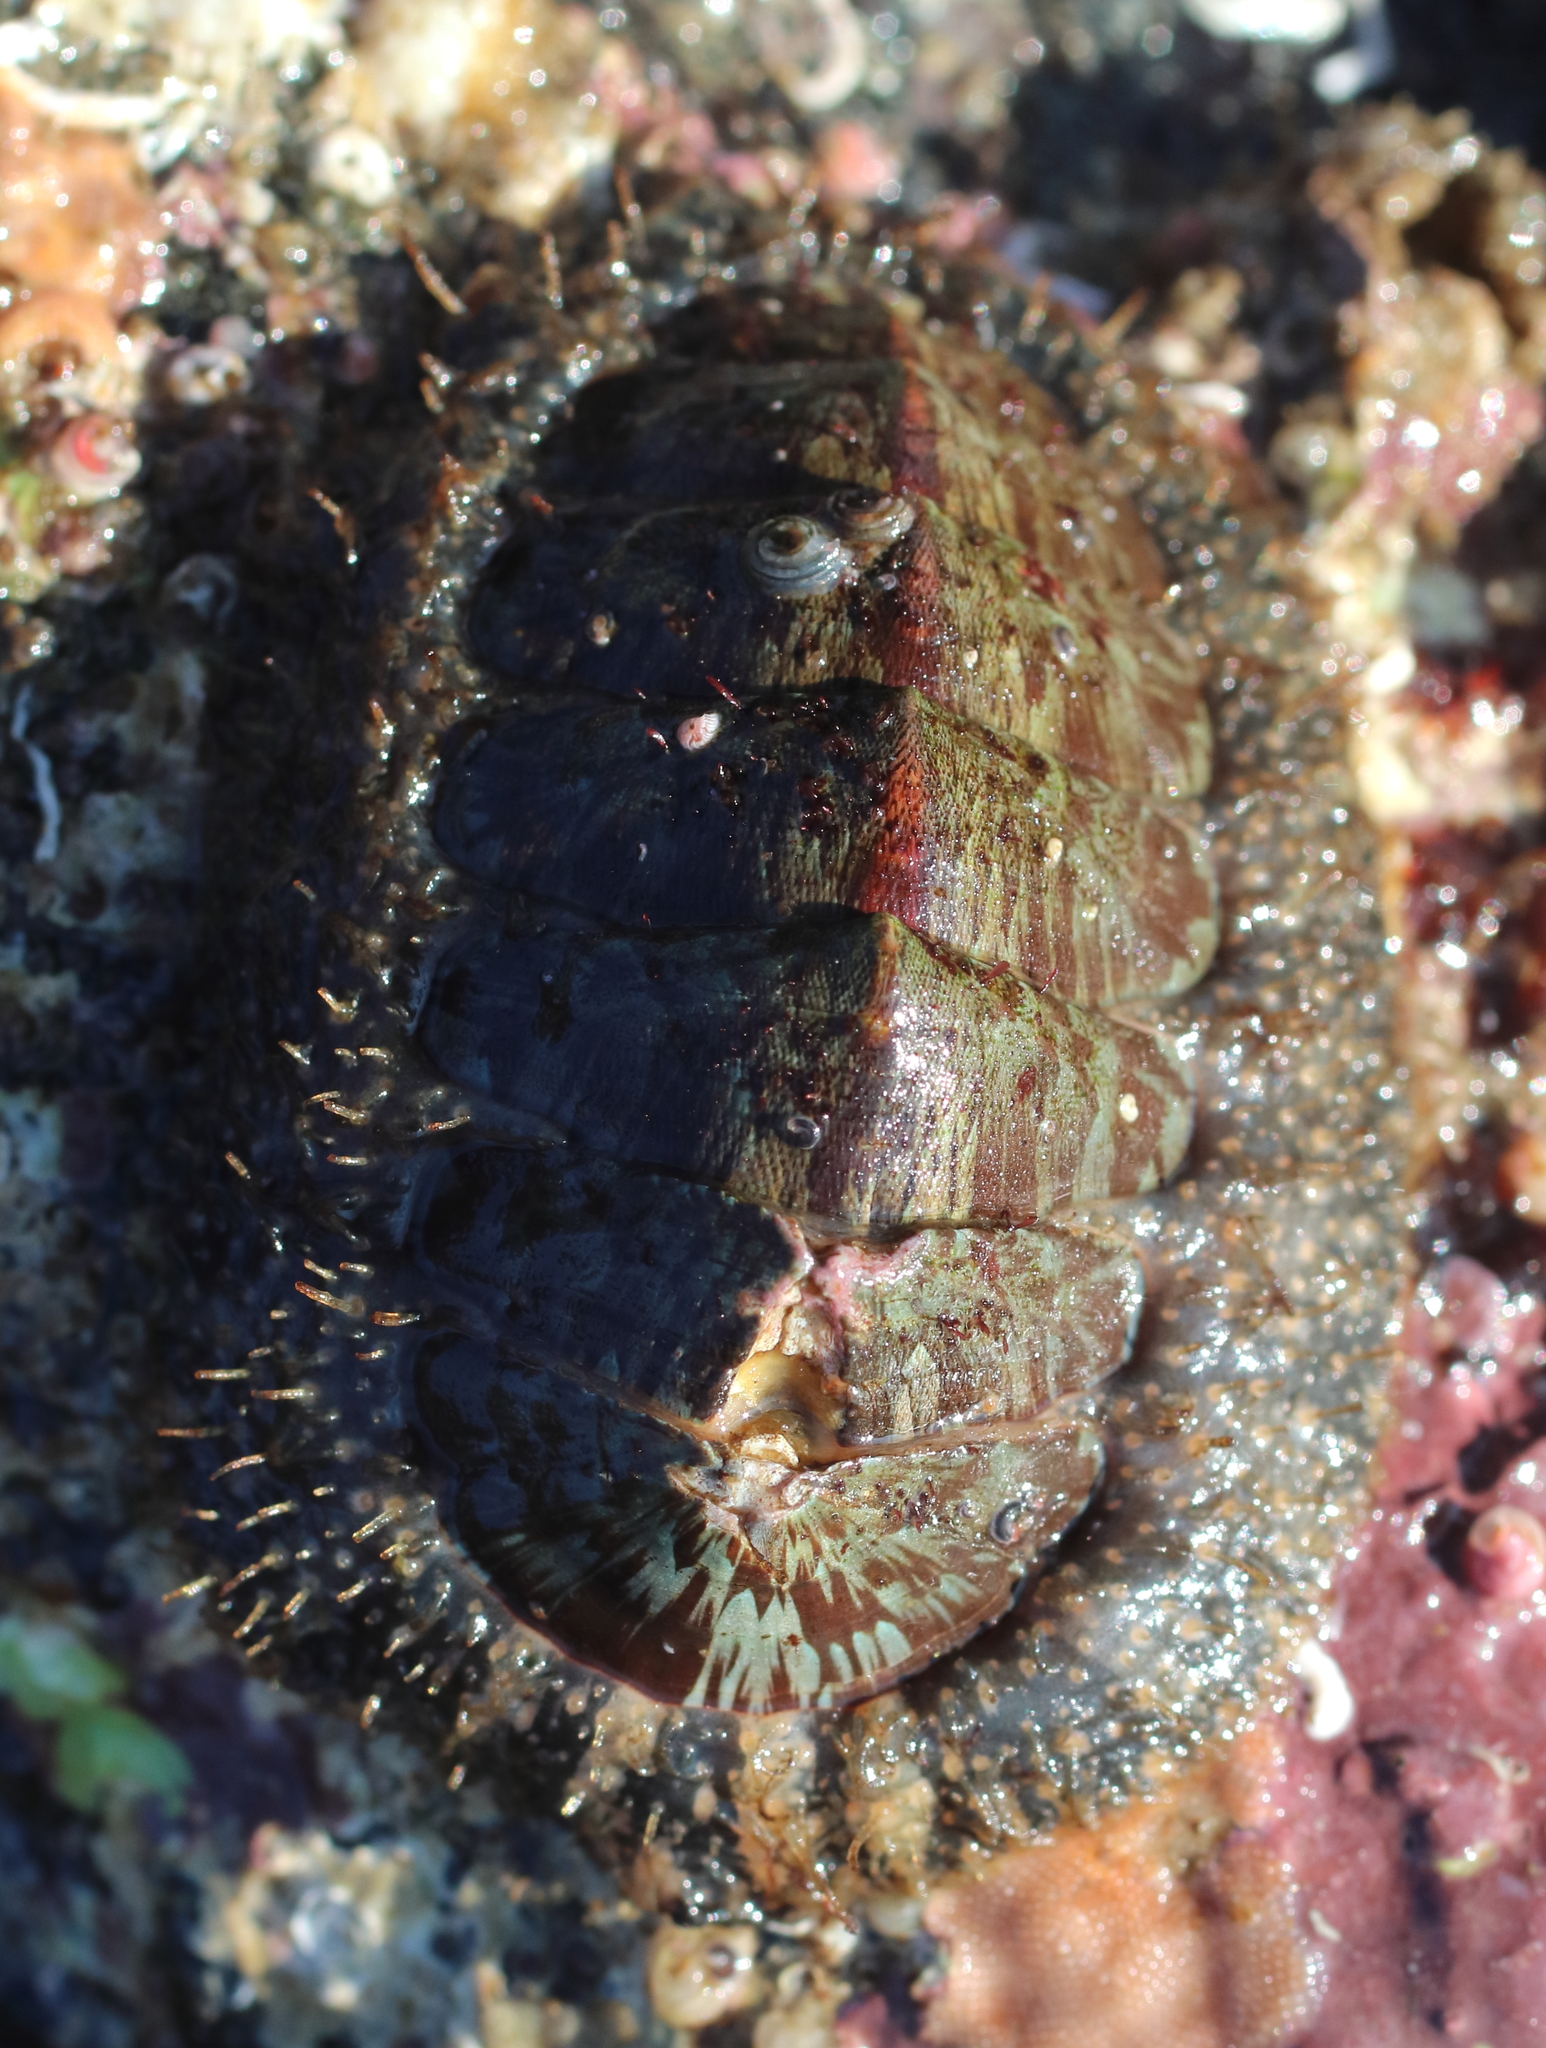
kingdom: Animalia
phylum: Mollusca
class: Polyplacophora
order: Chitonida
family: Mopaliidae
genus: Mopalia
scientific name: Mopalia lignosa
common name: Woody chiton
